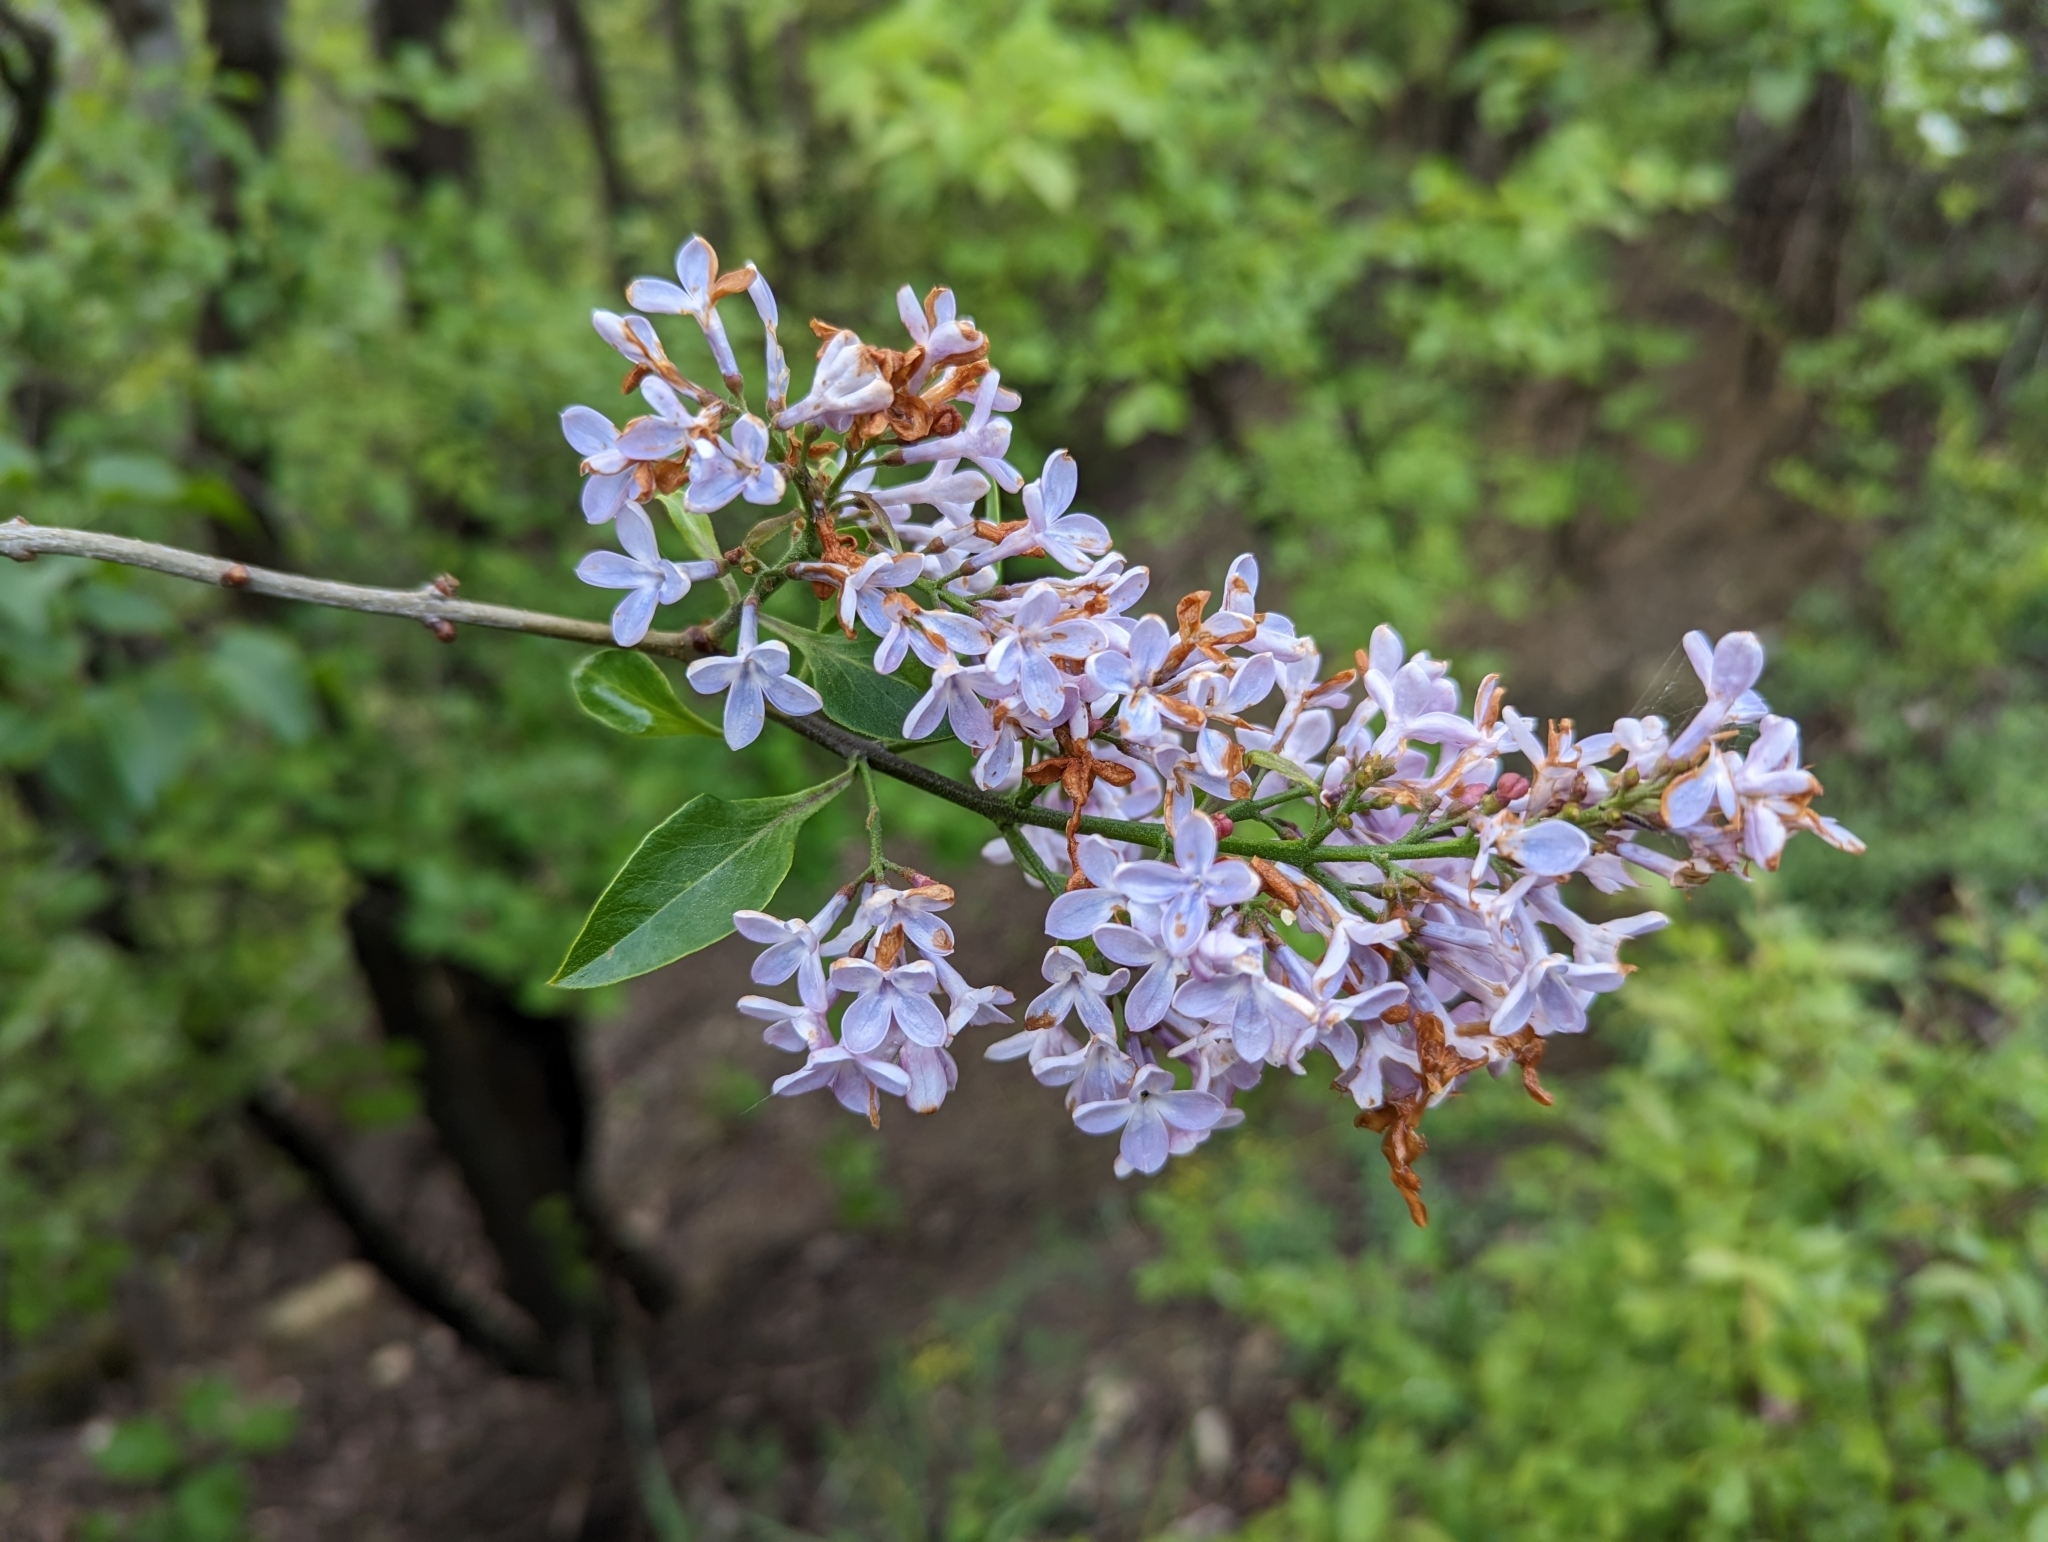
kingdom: Plantae
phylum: Tracheophyta
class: Magnoliopsida
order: Lamiales
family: Oleaceae
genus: Syringa
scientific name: Syringa vulgaris
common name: Common lilac
